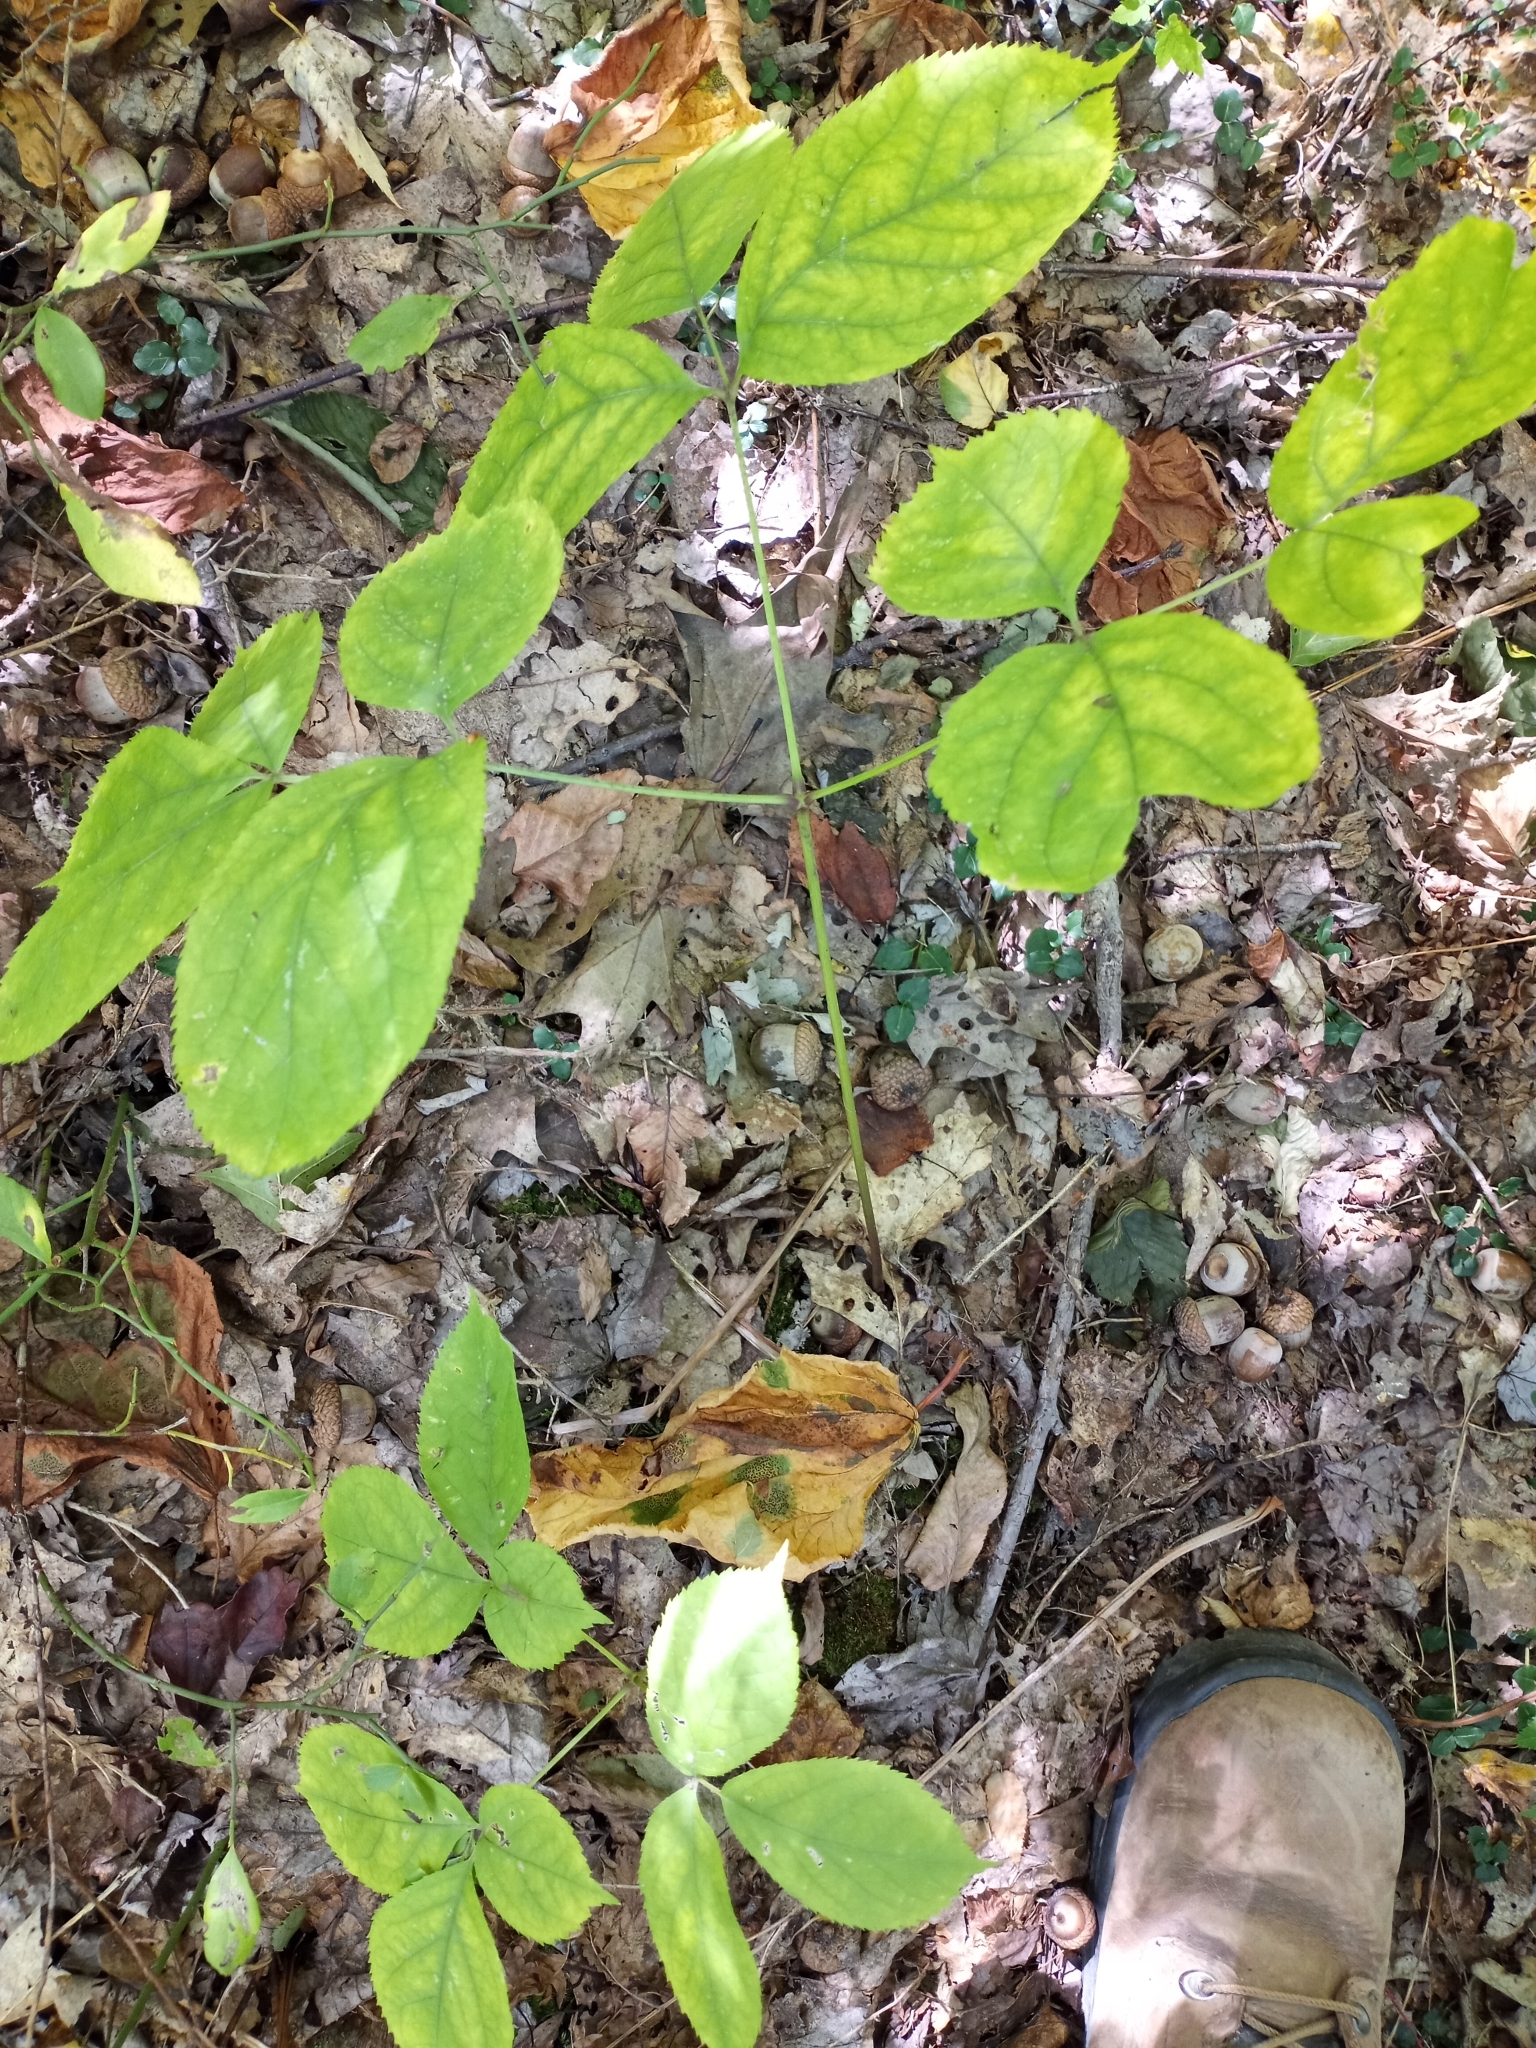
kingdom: Plantae
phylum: Tracheophyta
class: Magnoliopsida
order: Apiales
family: Araliaceae
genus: Aralia
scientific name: Aralia nudicaulis
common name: Wild sarsaparilla
